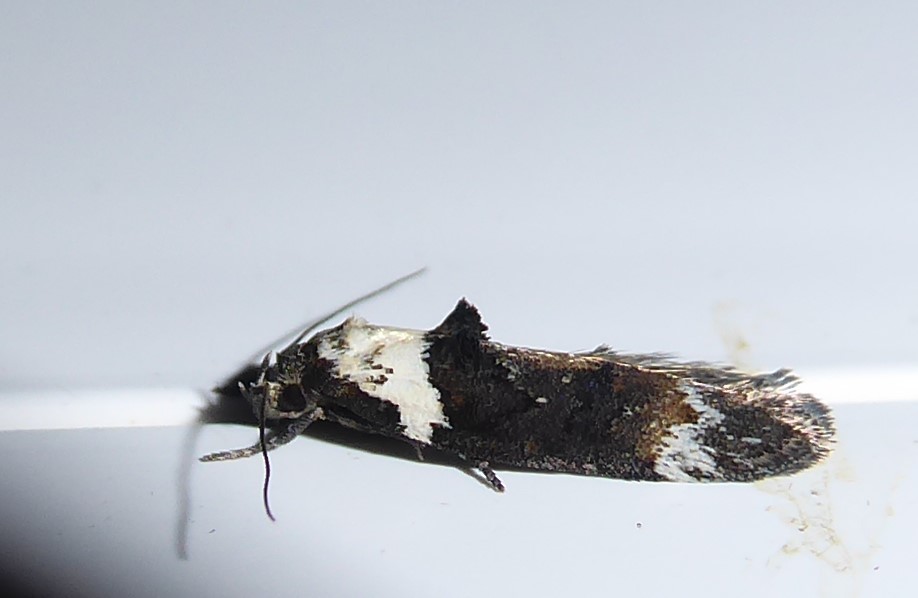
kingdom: Animalia
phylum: Arthropoda
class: Insecta
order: Lepidoptera
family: Oecophoridae
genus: Trachypepla
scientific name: Trachypepla conspicuella
